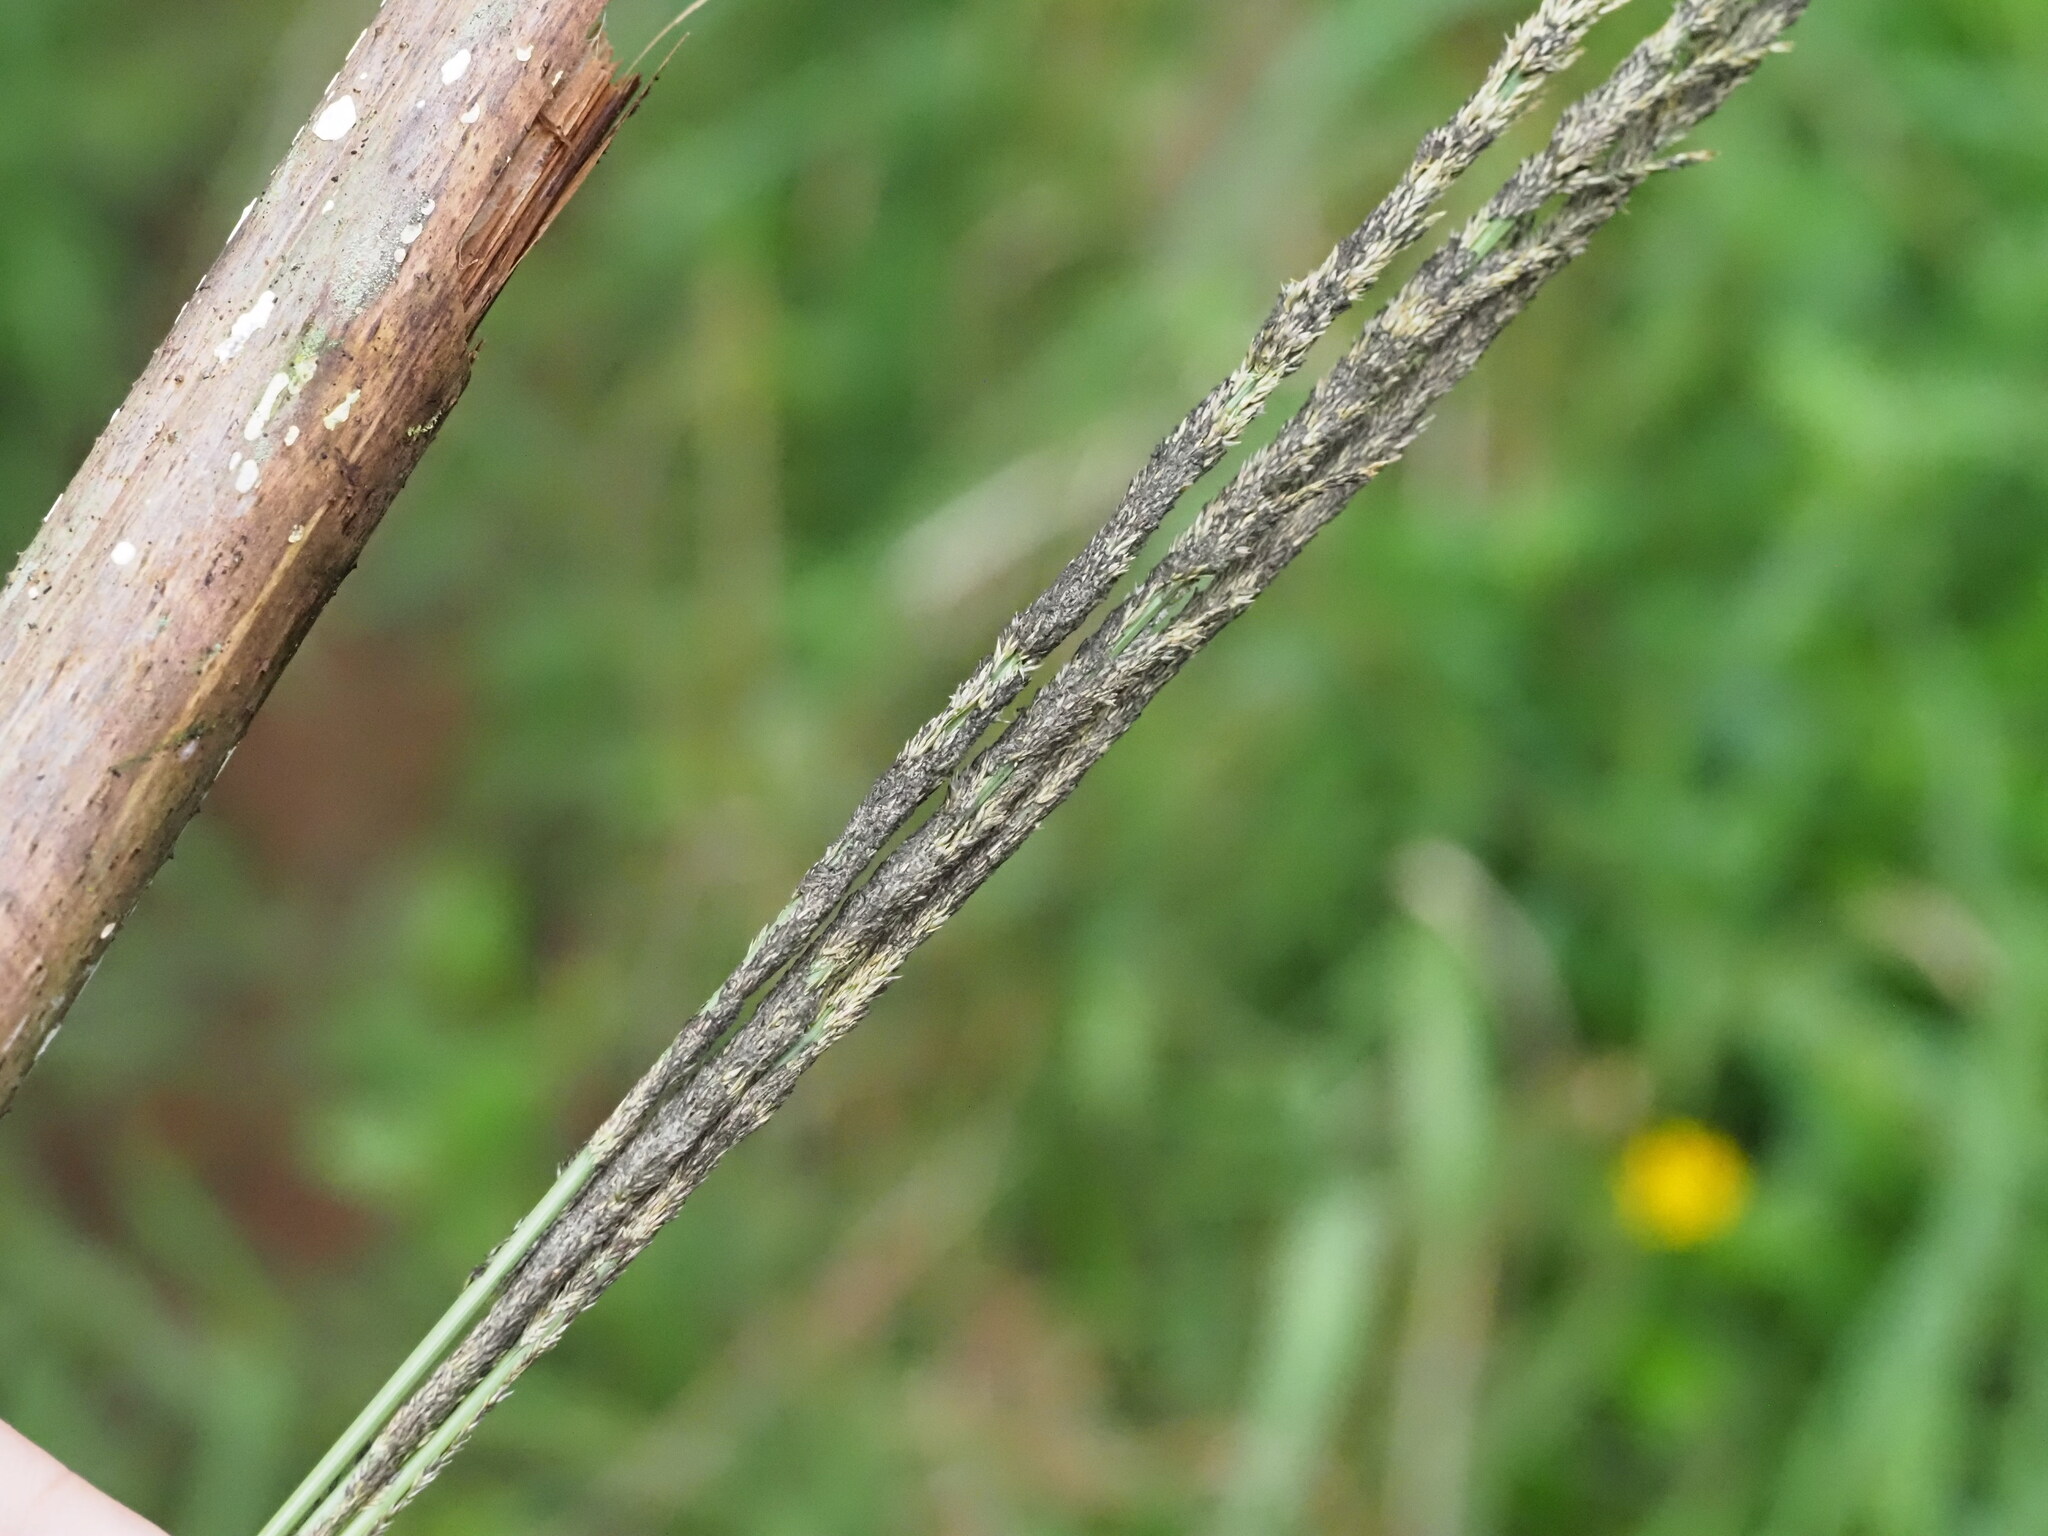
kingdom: Fungi
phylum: Ascomycota
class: Dothideomycetes
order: Pleosporales
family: Pleosporaceae
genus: Curvularia
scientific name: Curvularia ravenelii
